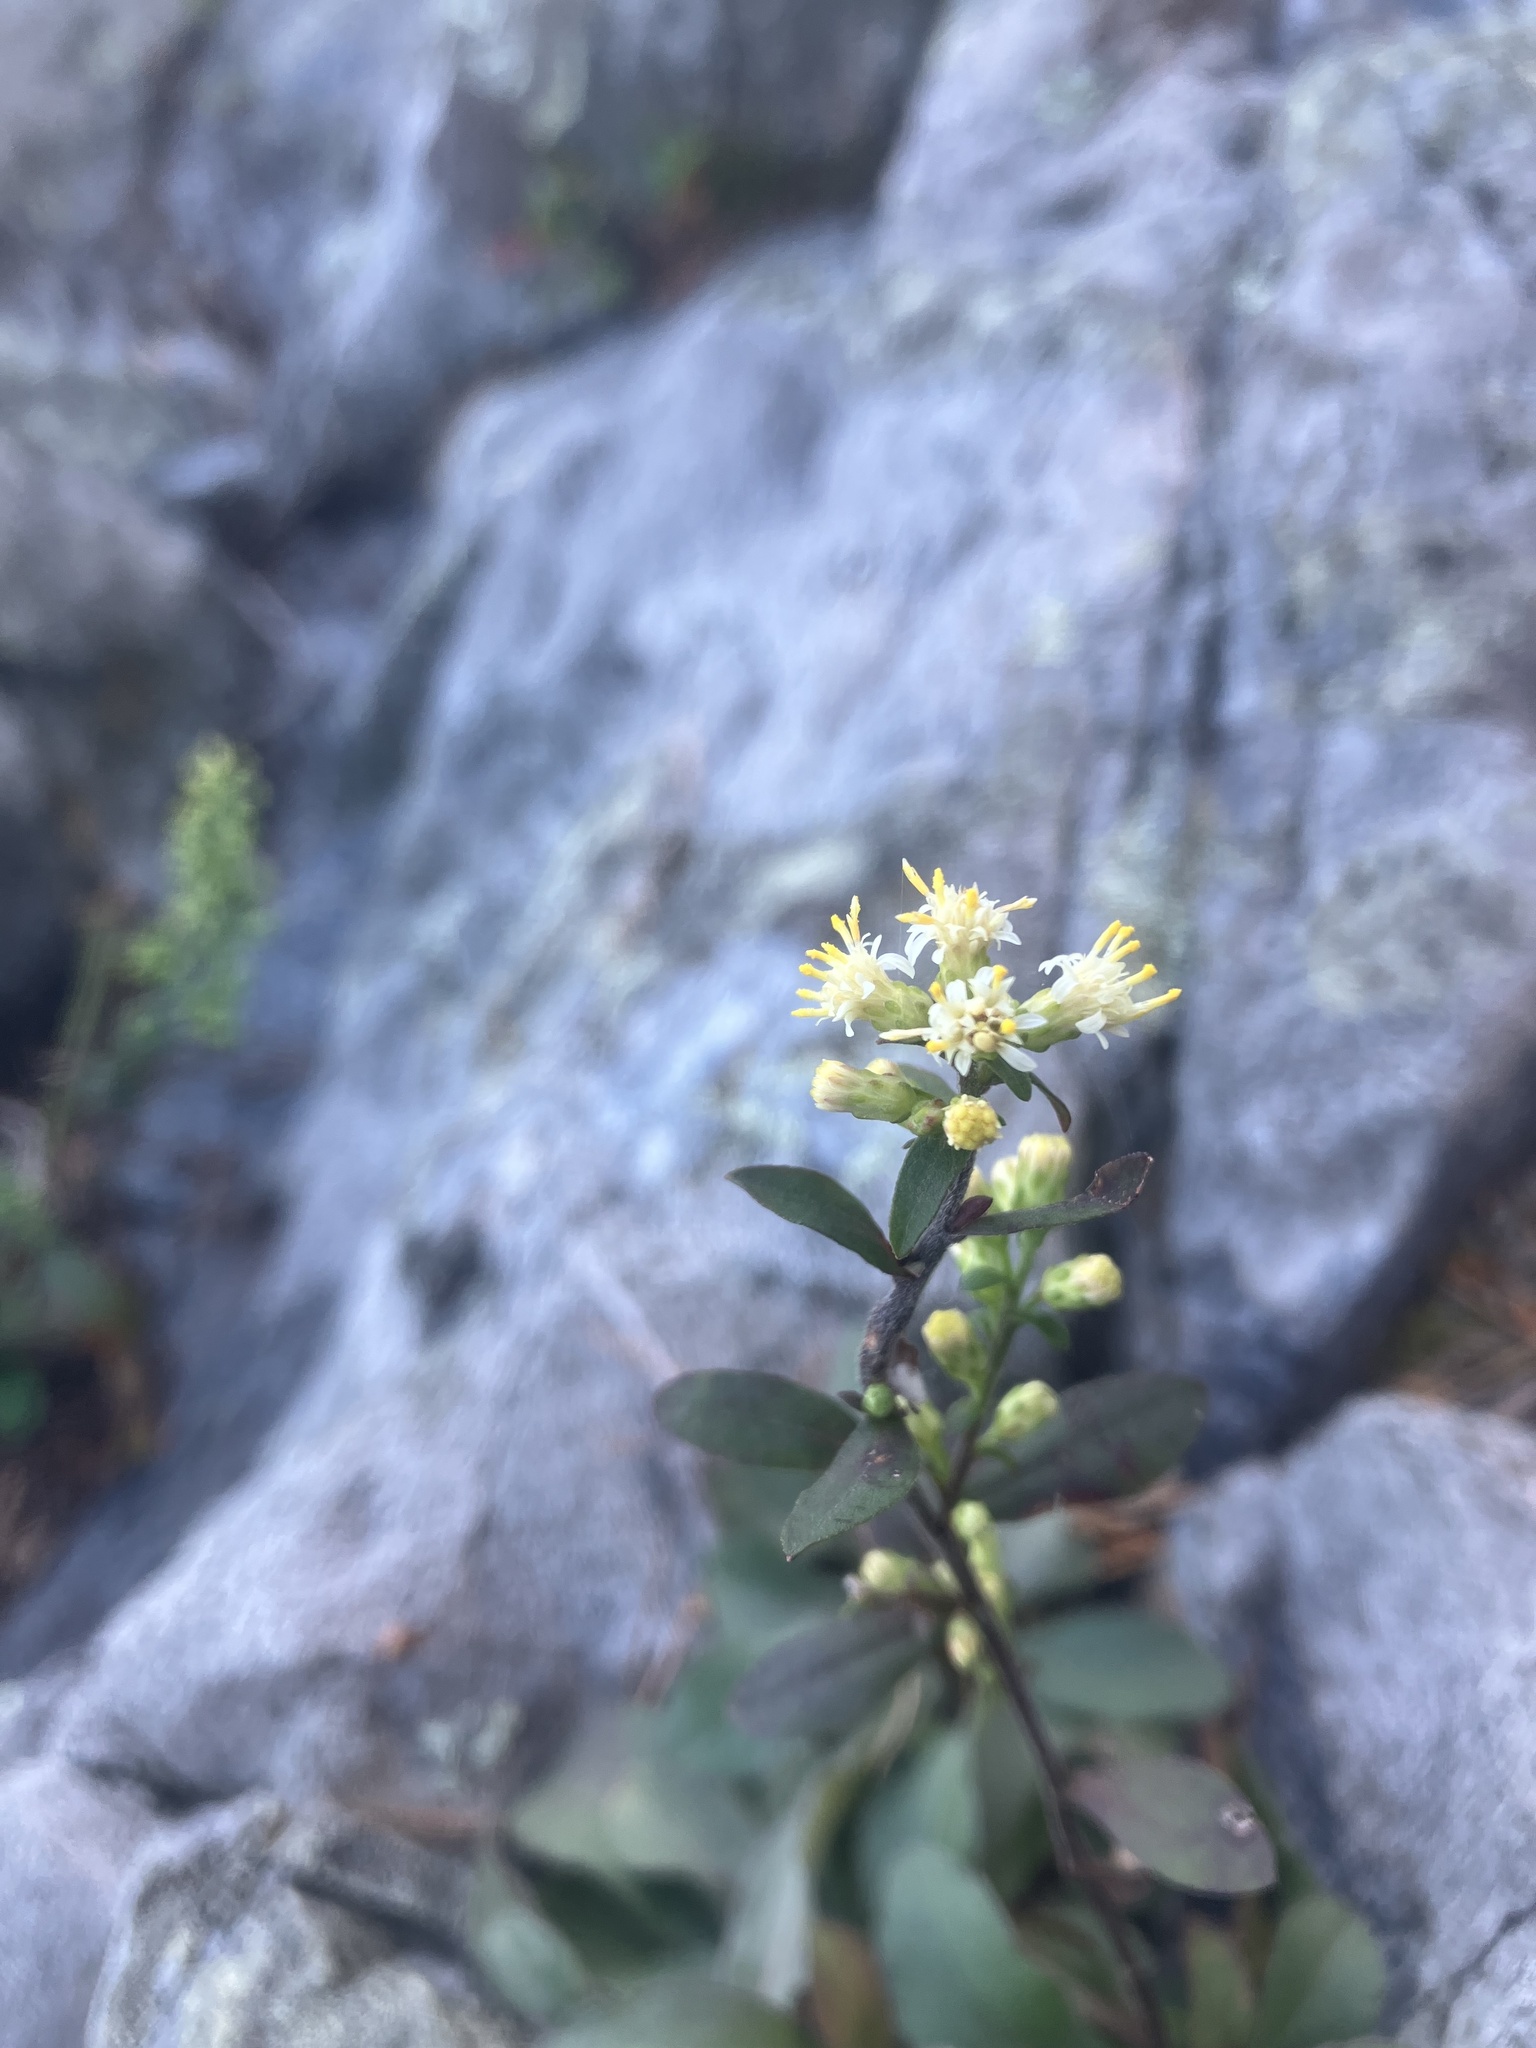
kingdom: Plantae
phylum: Tracheophyta
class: Magnoliopsida
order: Asterales
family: Asteraceae
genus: Solidago
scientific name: Solidago bicolor
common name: Silverrod
